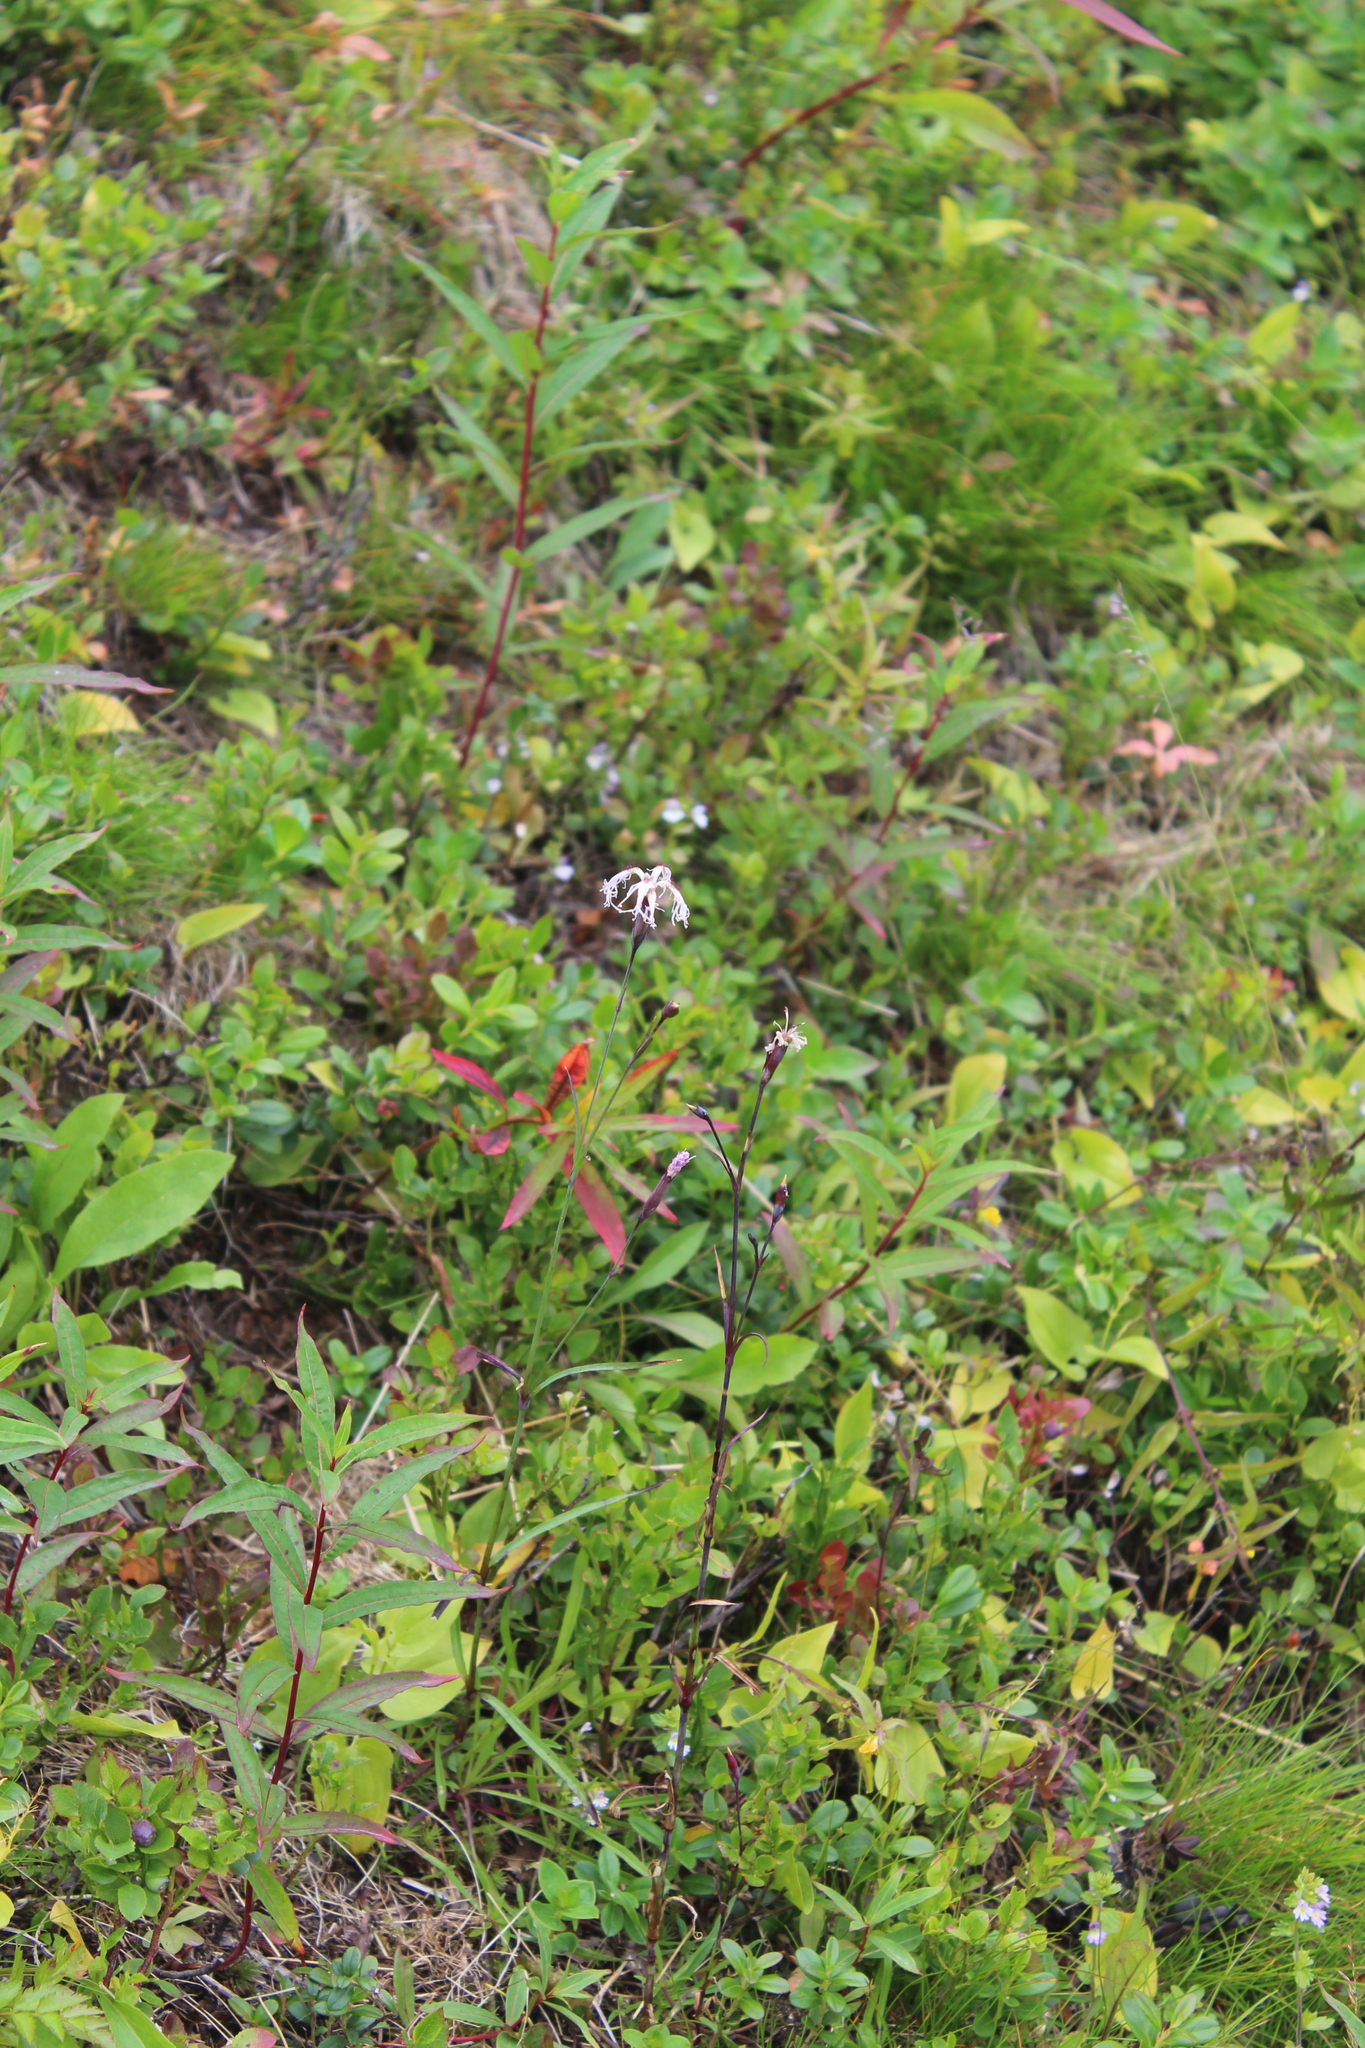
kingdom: Plantae
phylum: Tracheophyta
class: Magnoliopsida
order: Caryophyllales
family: Caryophyllaceae
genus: Dianthus
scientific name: Dianthus superbus
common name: Fringed pink
